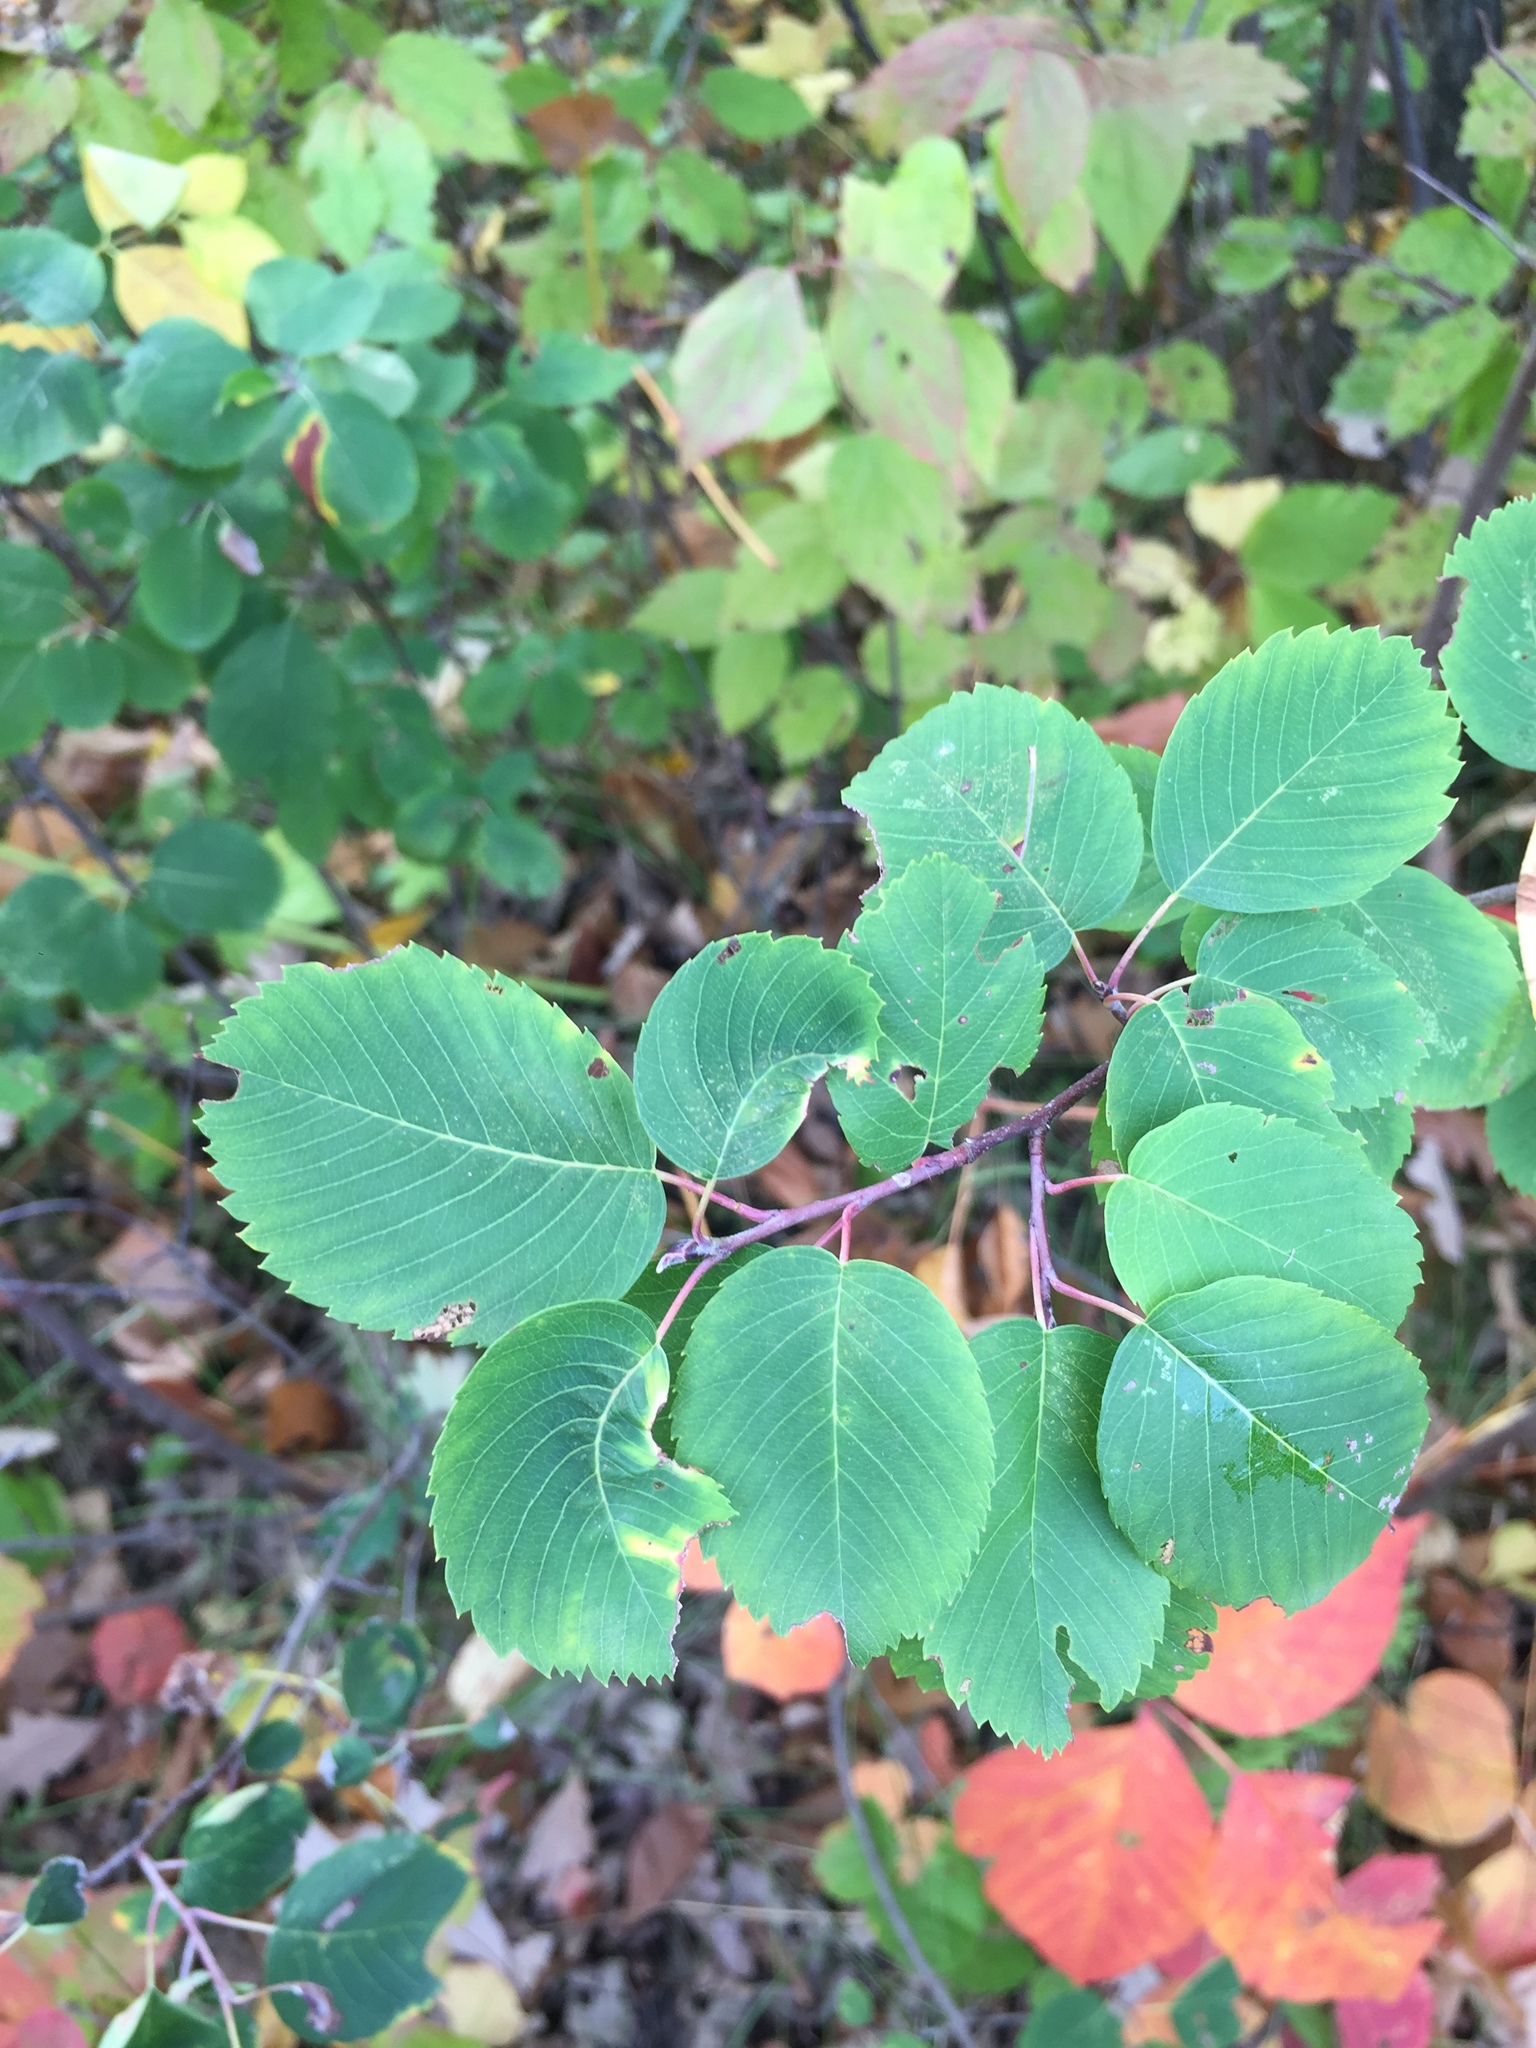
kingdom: Plantae
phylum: Tracheophyta
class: Magnoliopsida
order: Rosales
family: Rosaceae
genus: Amelanchier
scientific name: Amelanchier alnifolia
